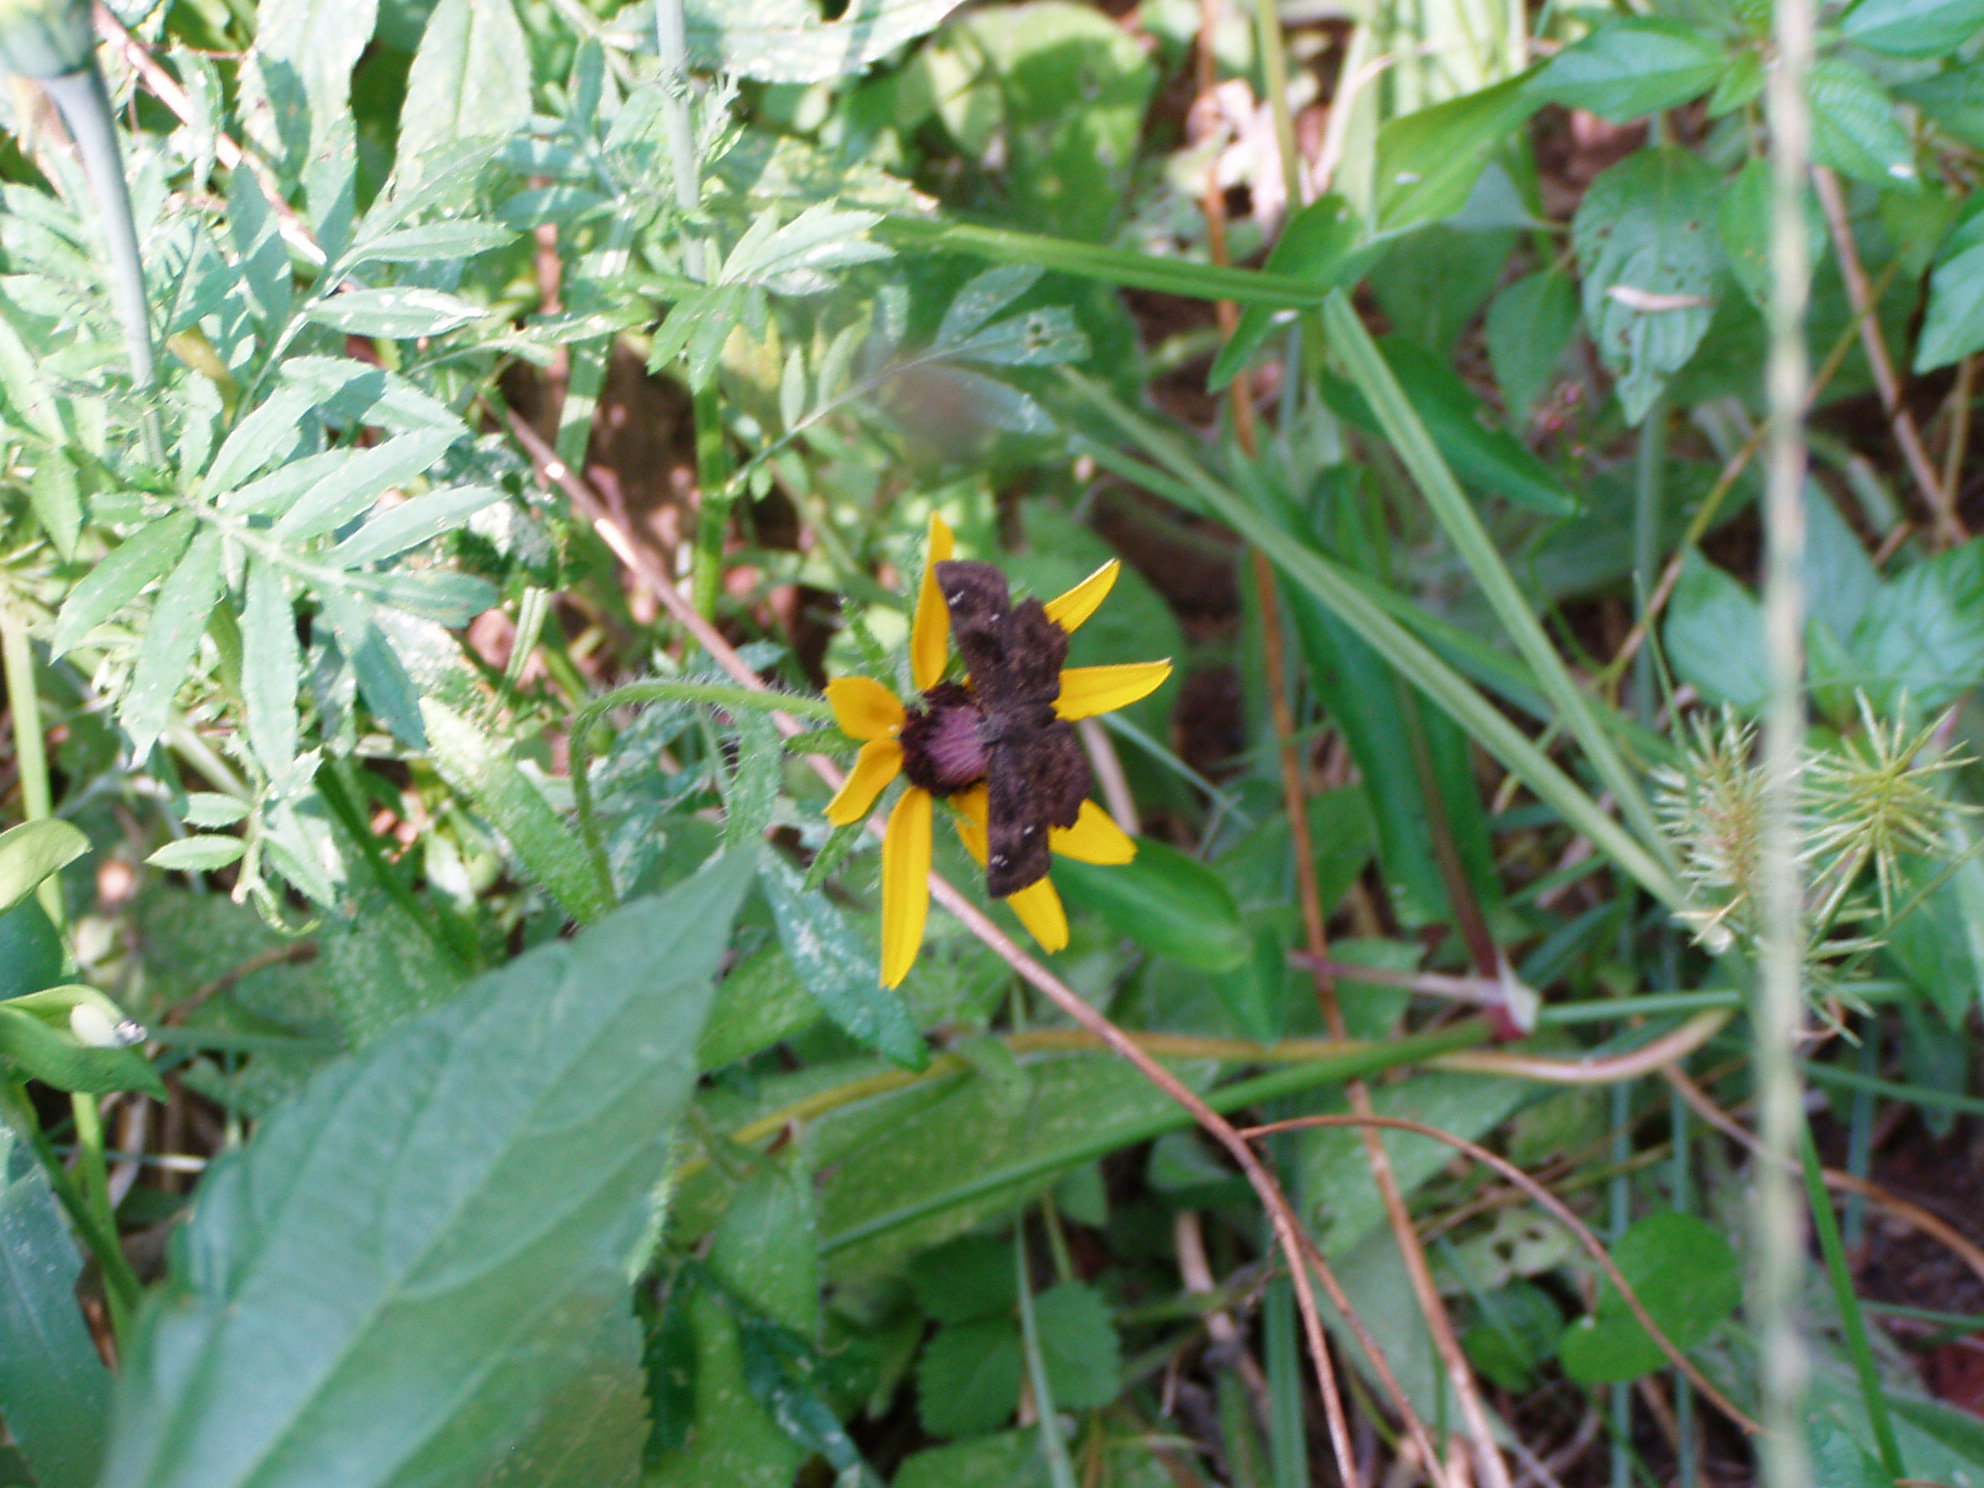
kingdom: Animalia
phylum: Arthropoda
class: Insecta
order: Lepidoptera
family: Hesperiidae
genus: Staphylus
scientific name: Staphylus mazans
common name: Mazans scallopwing
